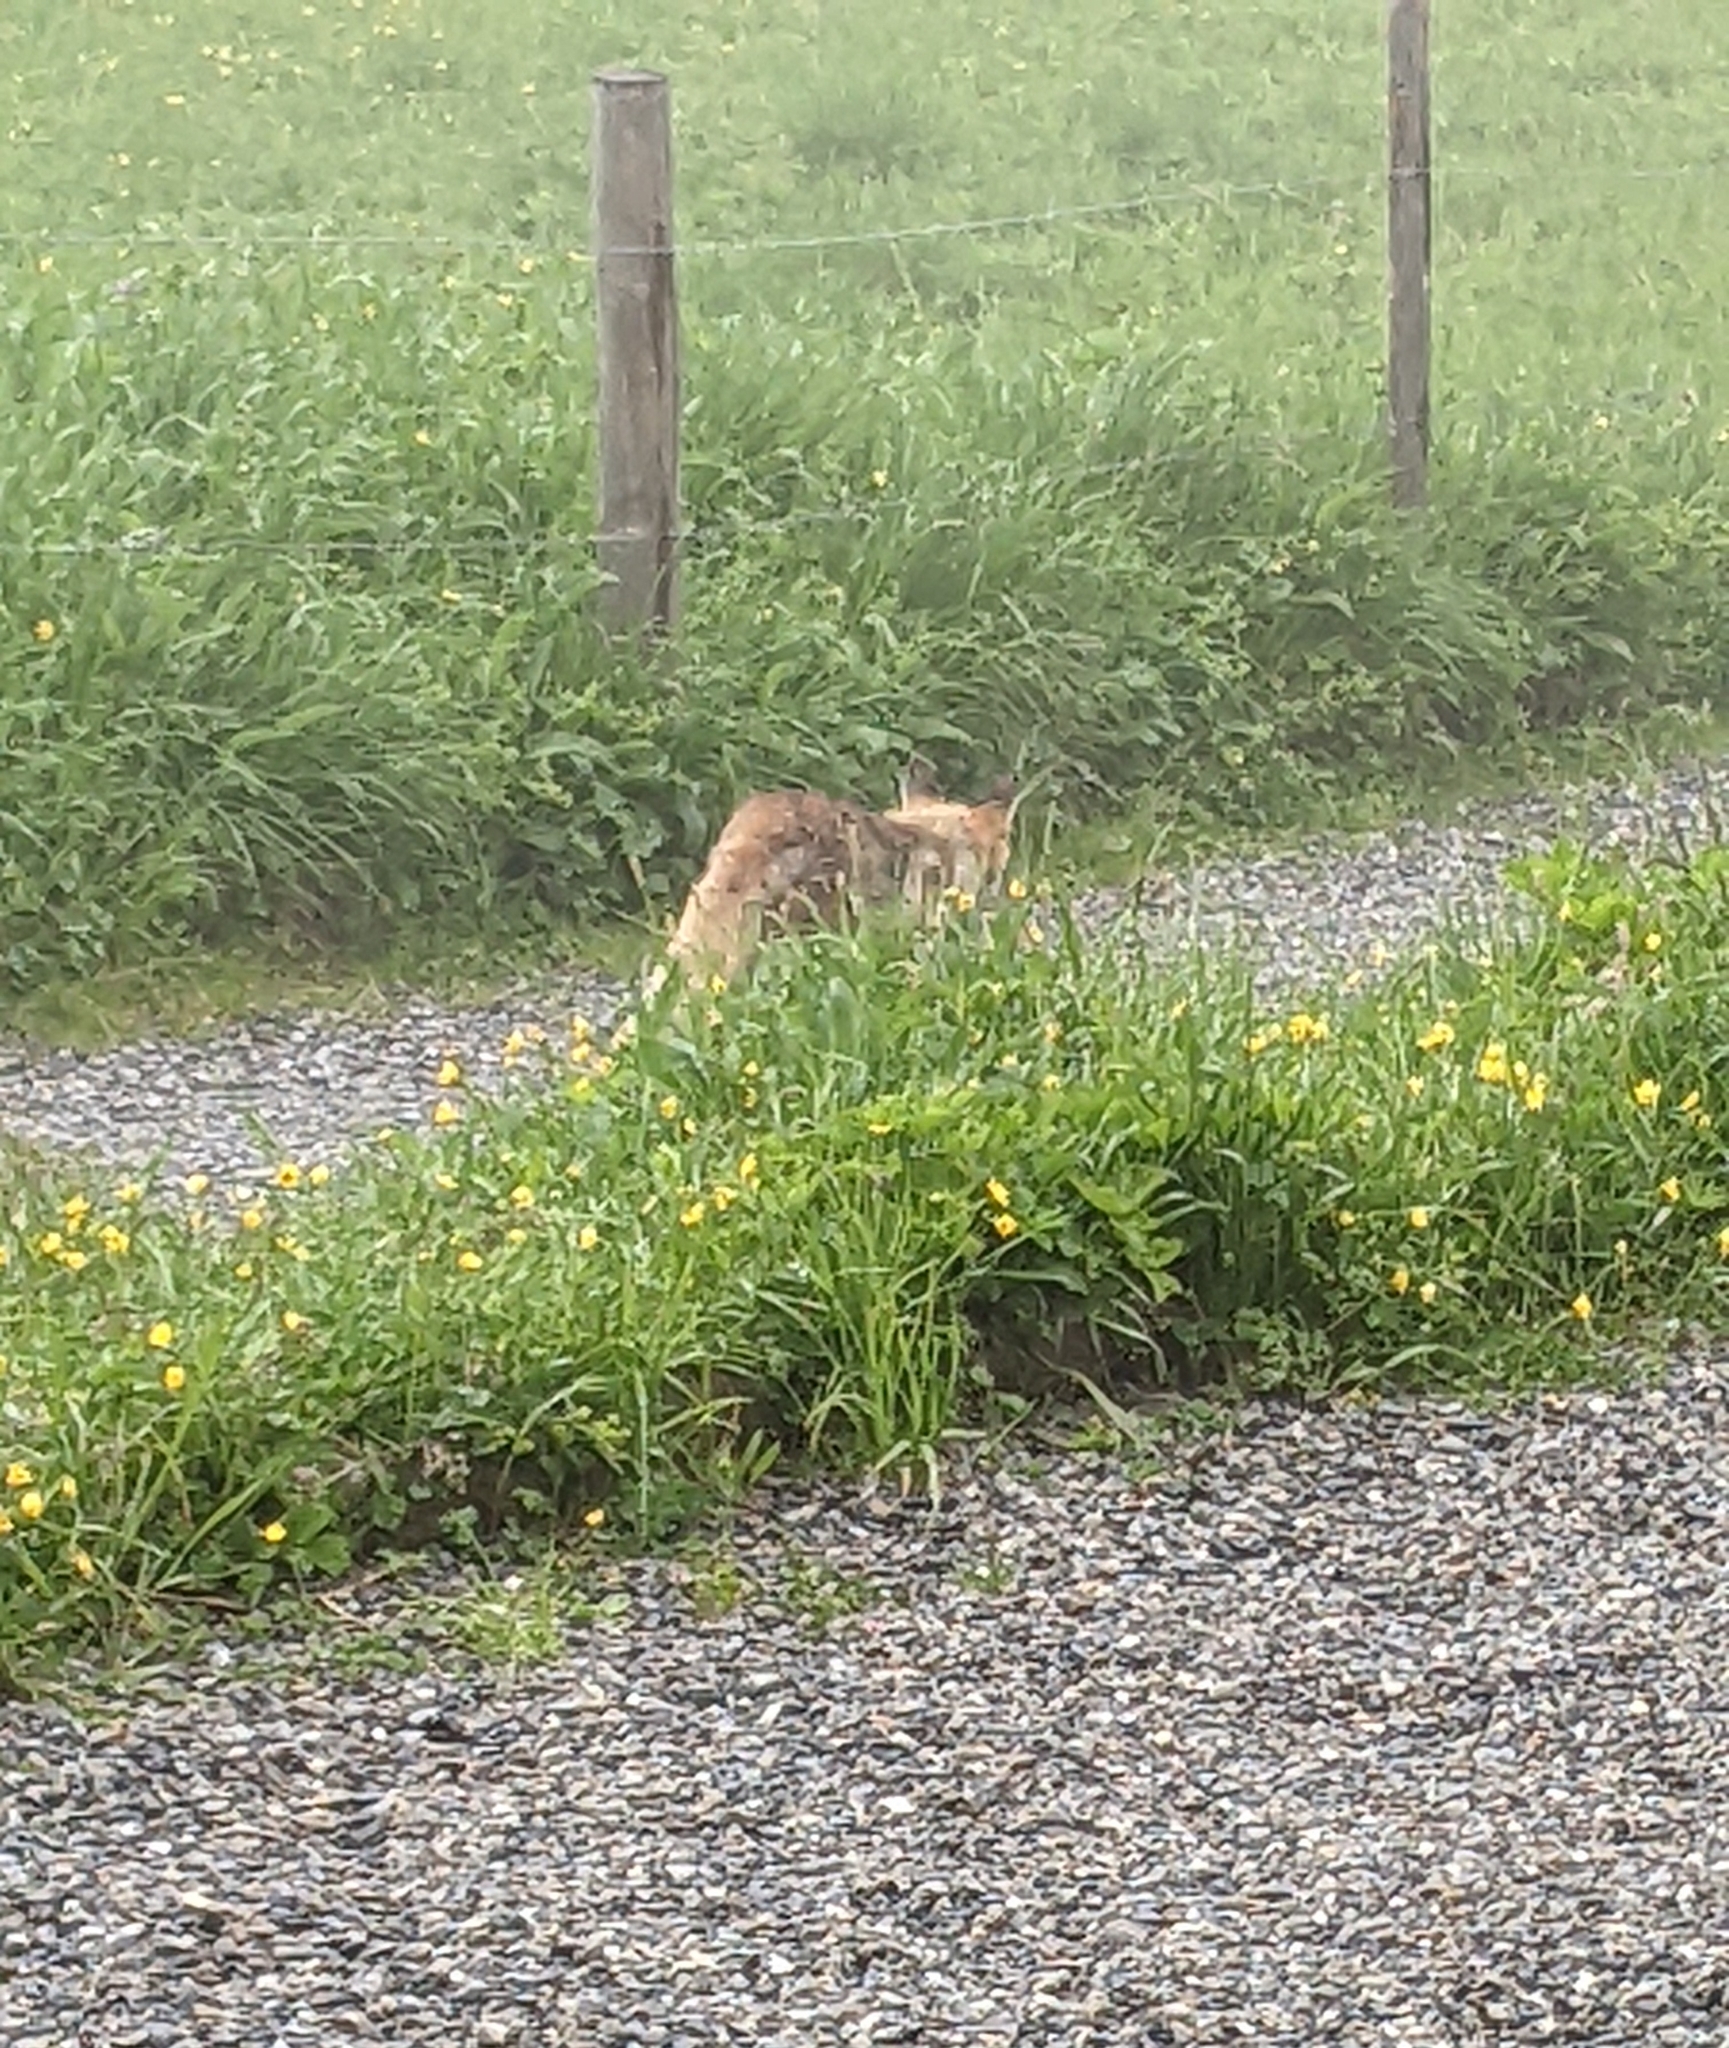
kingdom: Animalia
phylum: Chordata
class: Mammalia
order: Carnivora
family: Canidae
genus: Vulpes
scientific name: Vulpes vulpes
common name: Red fox
